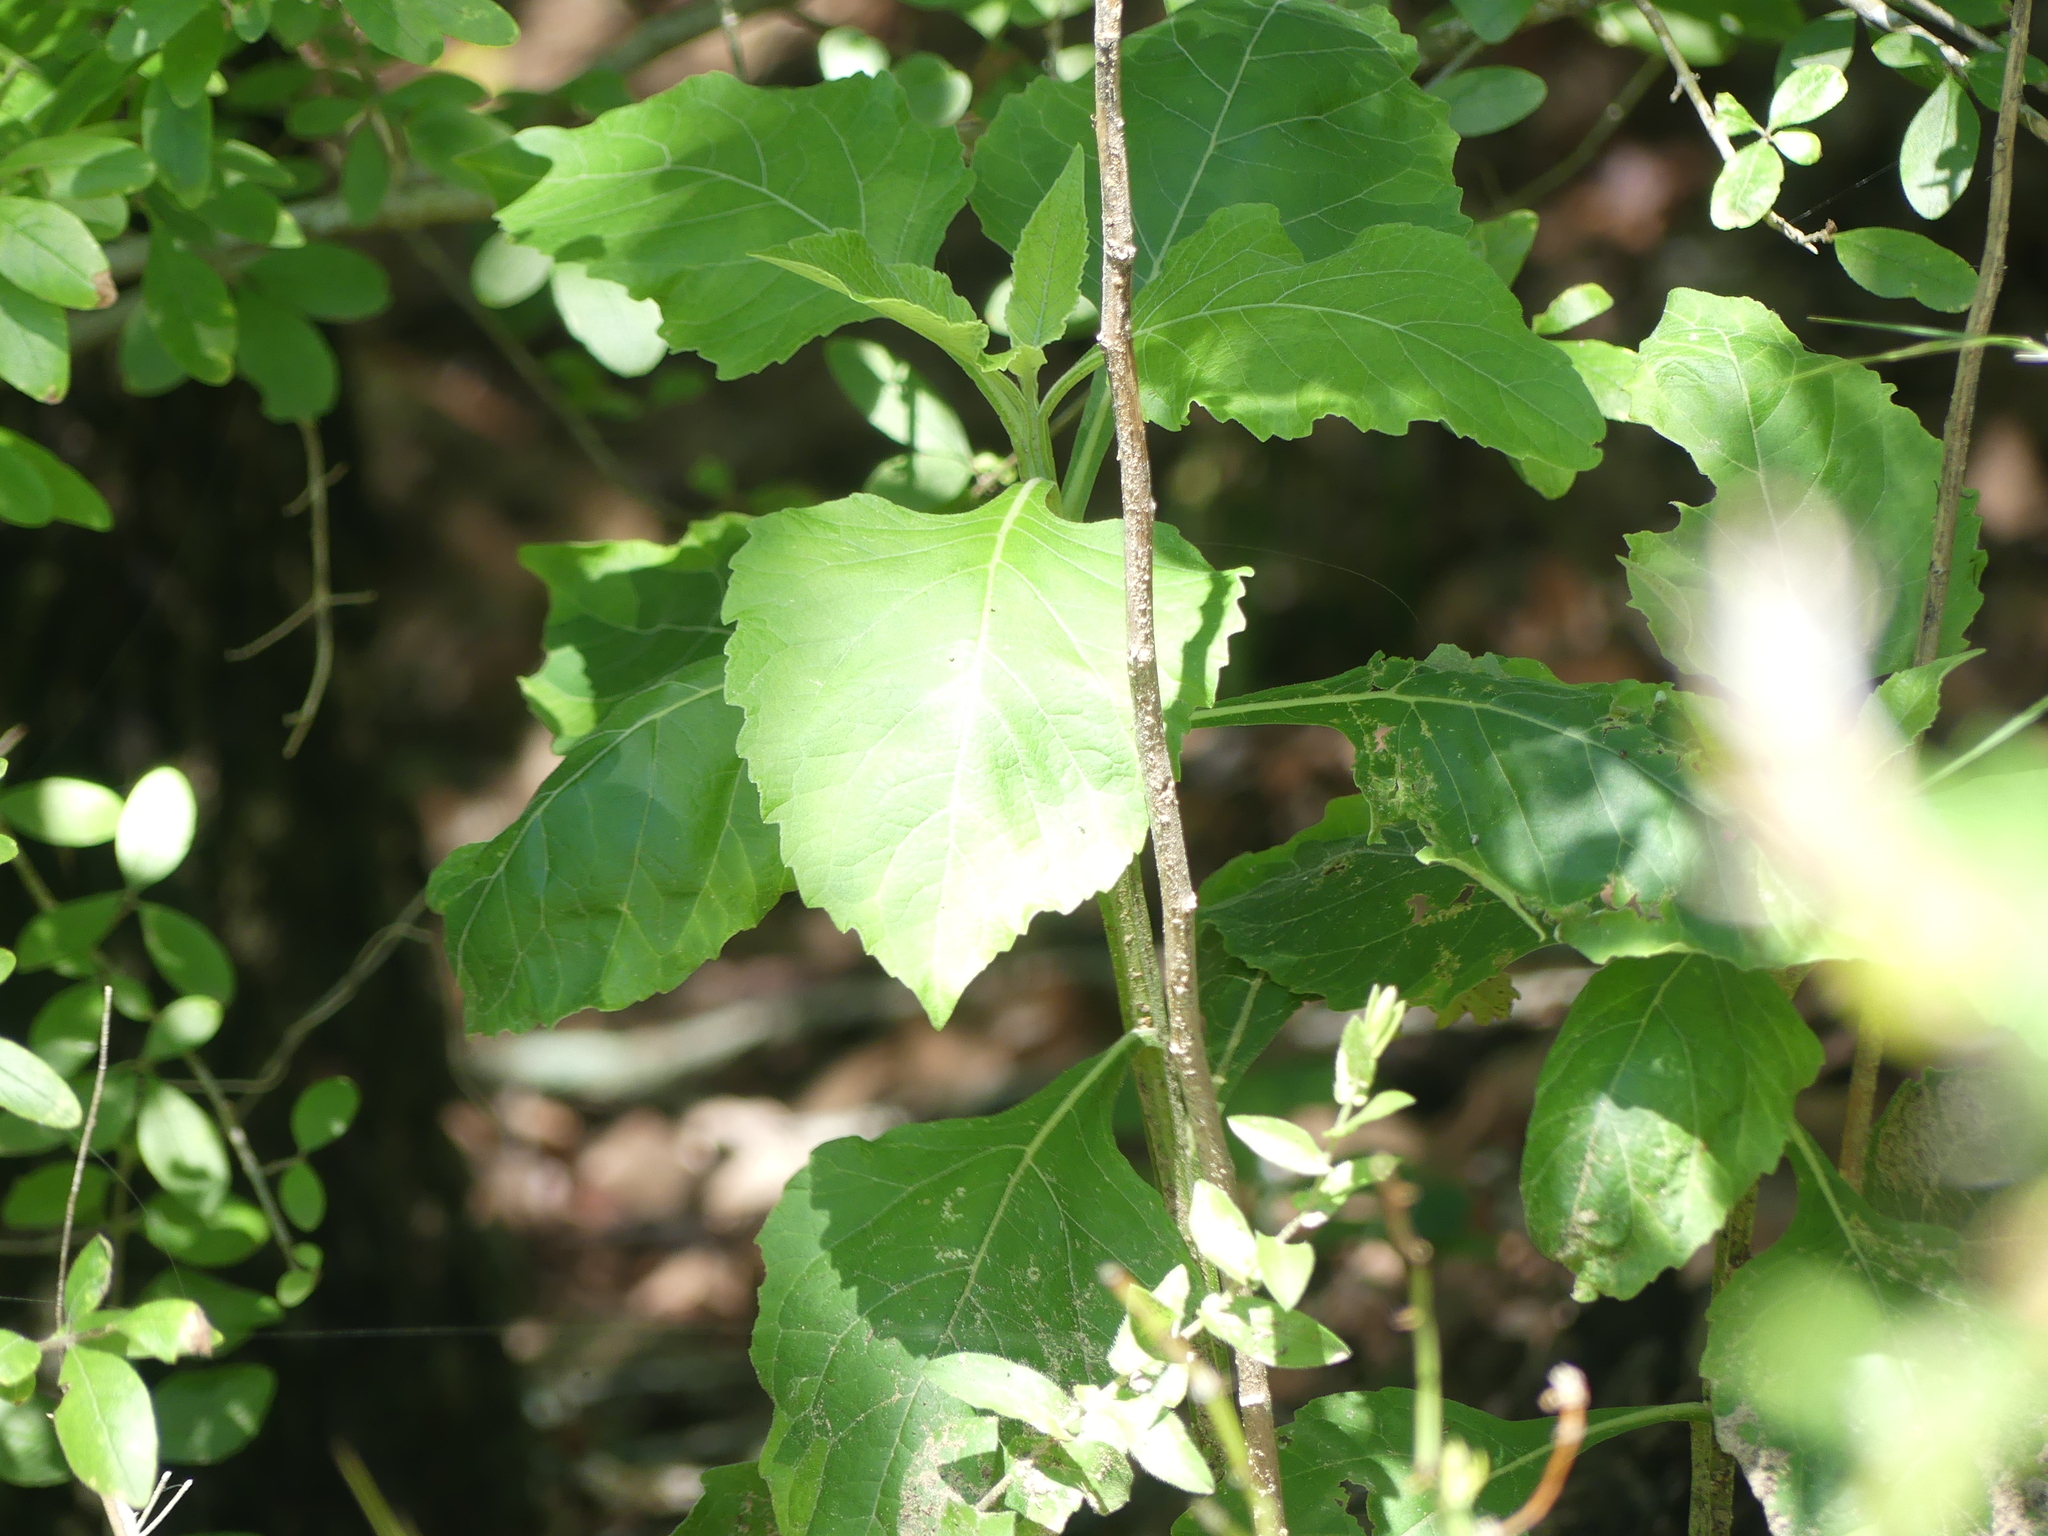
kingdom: Plantae
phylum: Tracheophyta
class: Magnoliopsida
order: Asterales
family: Asteraceae
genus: Verbesina
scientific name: Verbesina virginica
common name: Frostweed
